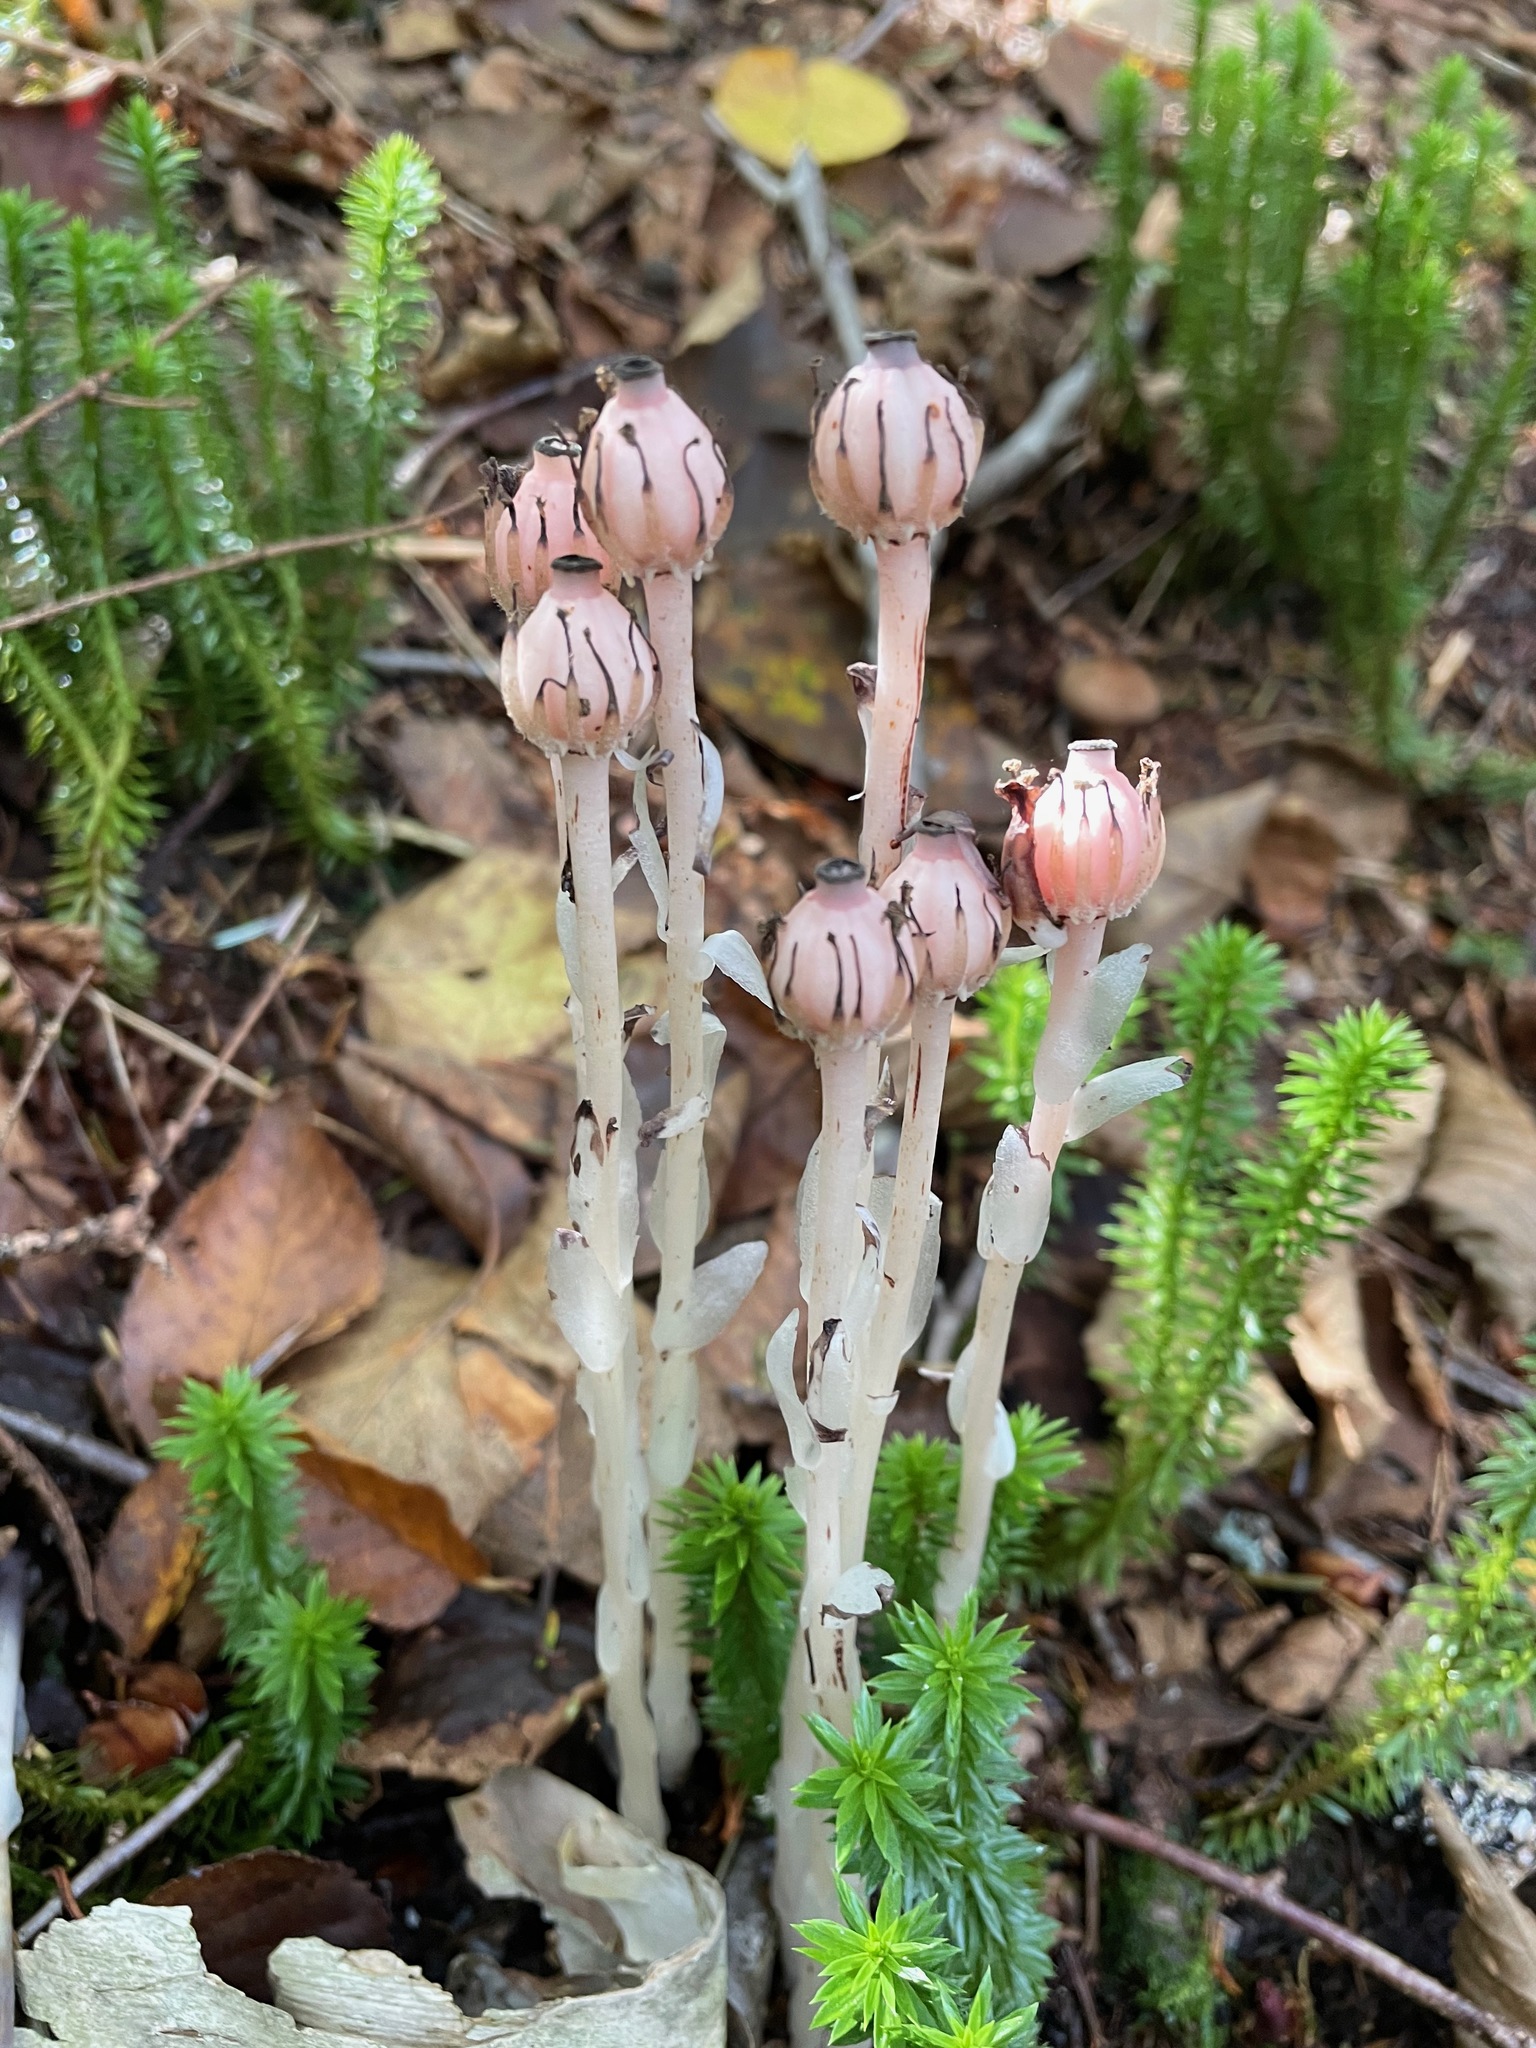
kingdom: Plantae
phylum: Tracheophyta
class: Magnoliopsida
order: Ericales
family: Ericaceae
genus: Monotropa
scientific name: Monotropa uniflora
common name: Convulsion root
